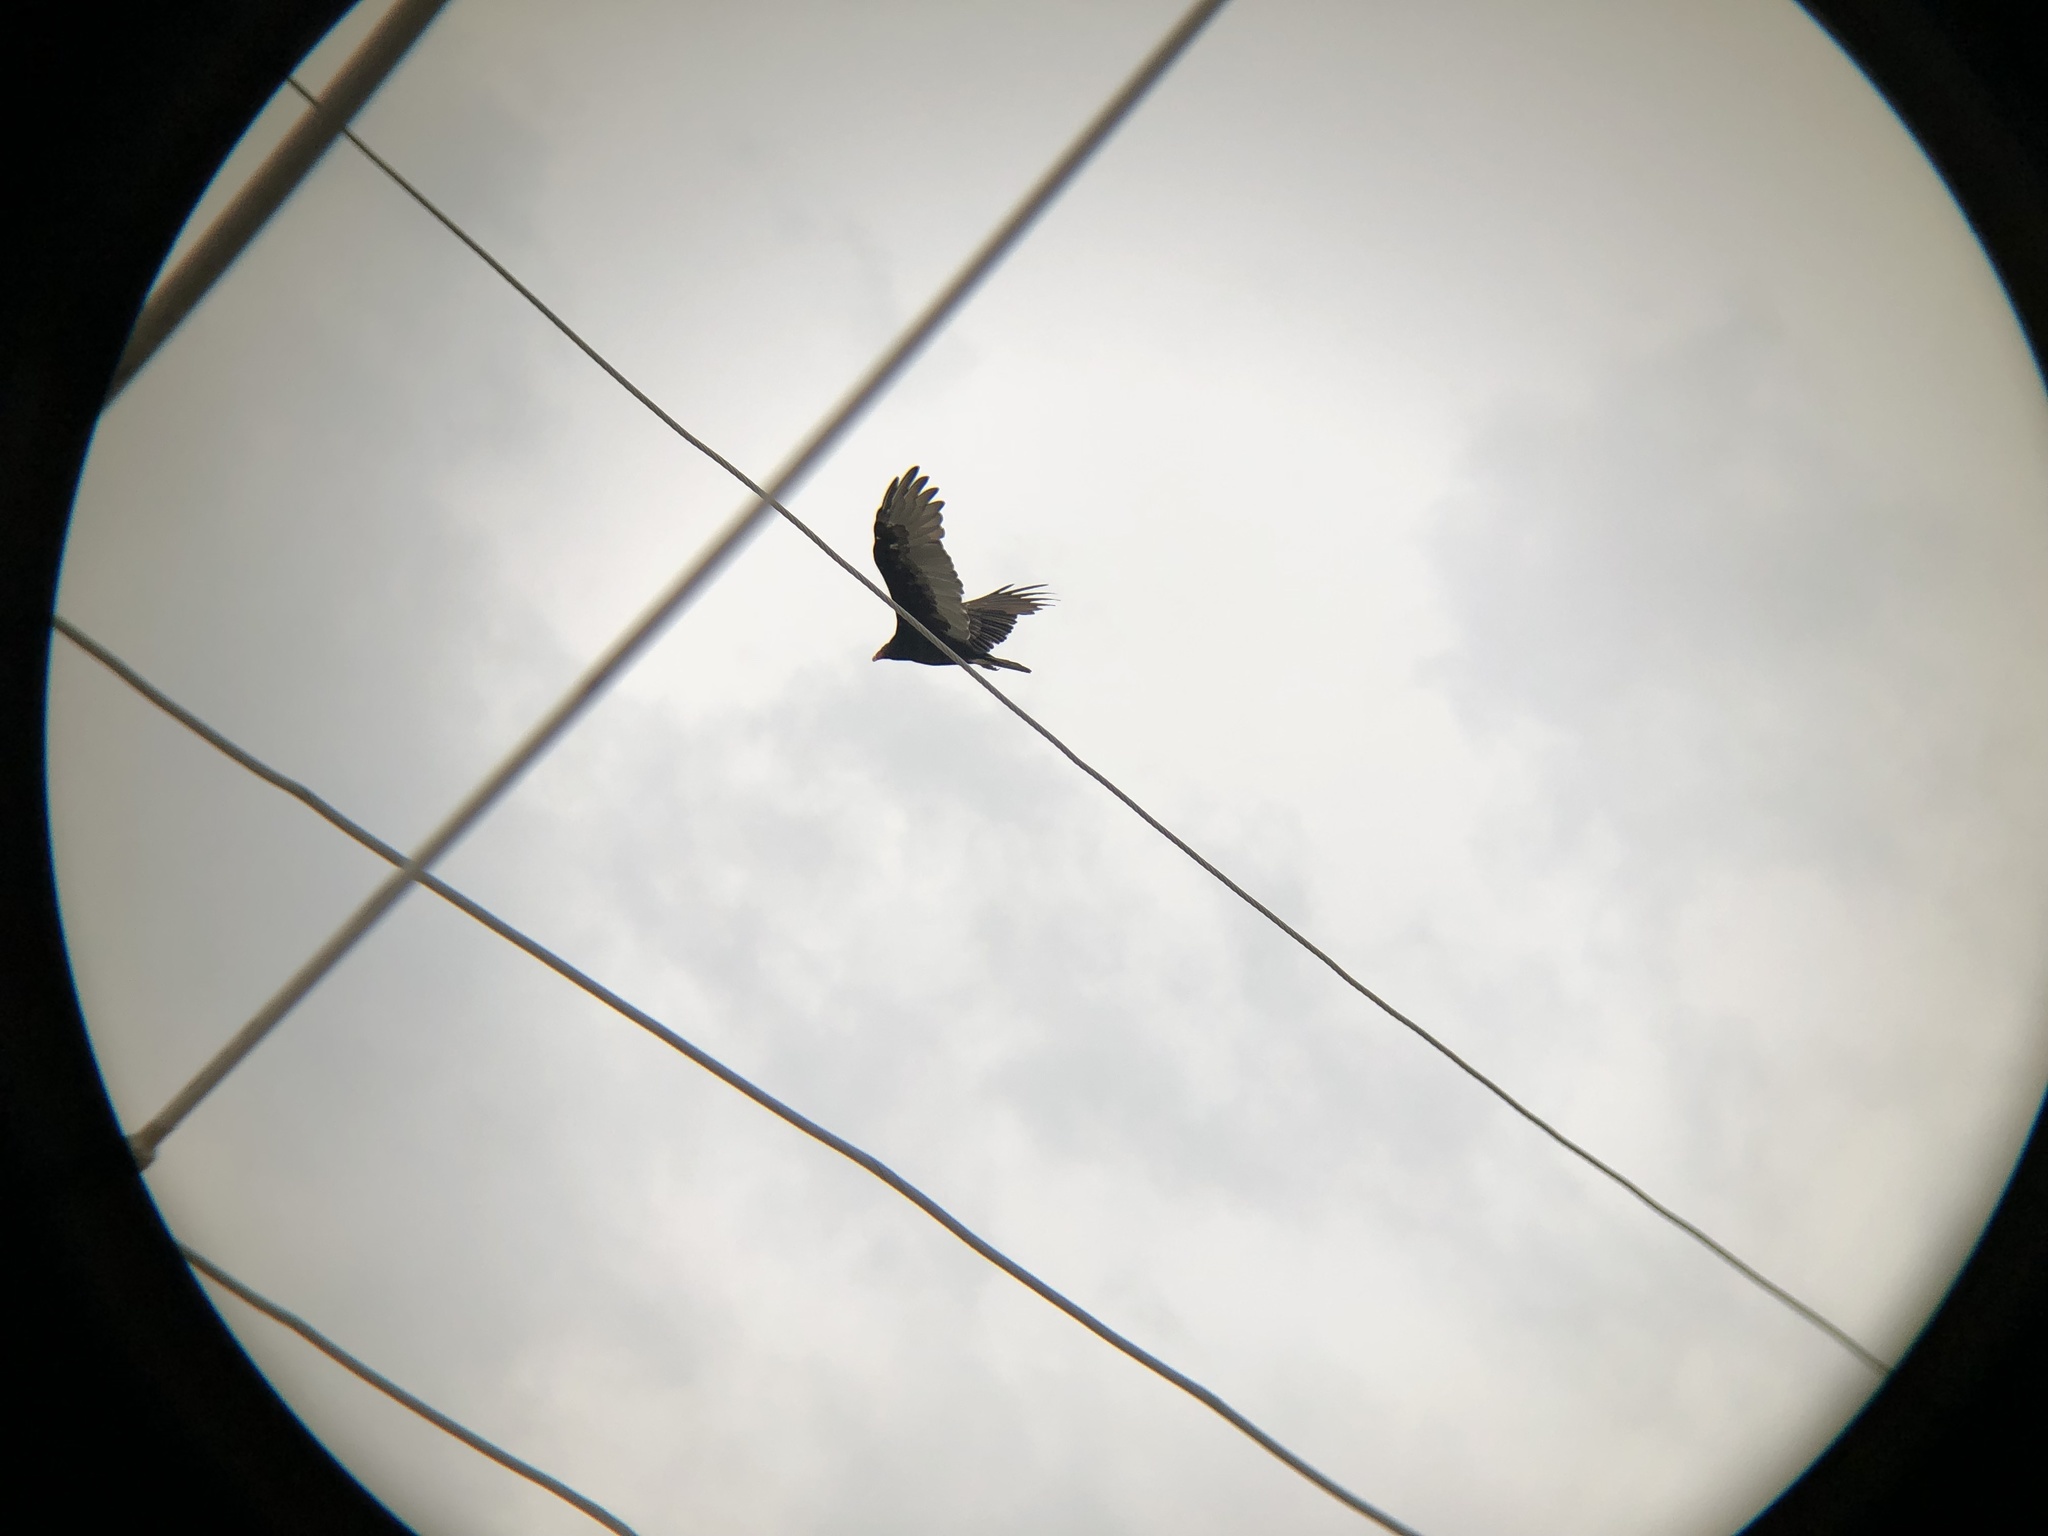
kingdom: Animalia
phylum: Chordata
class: Aves
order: Accipitriformes
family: Cathartidae
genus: Cathartes
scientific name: Cathartes aura
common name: Turkey vulture
